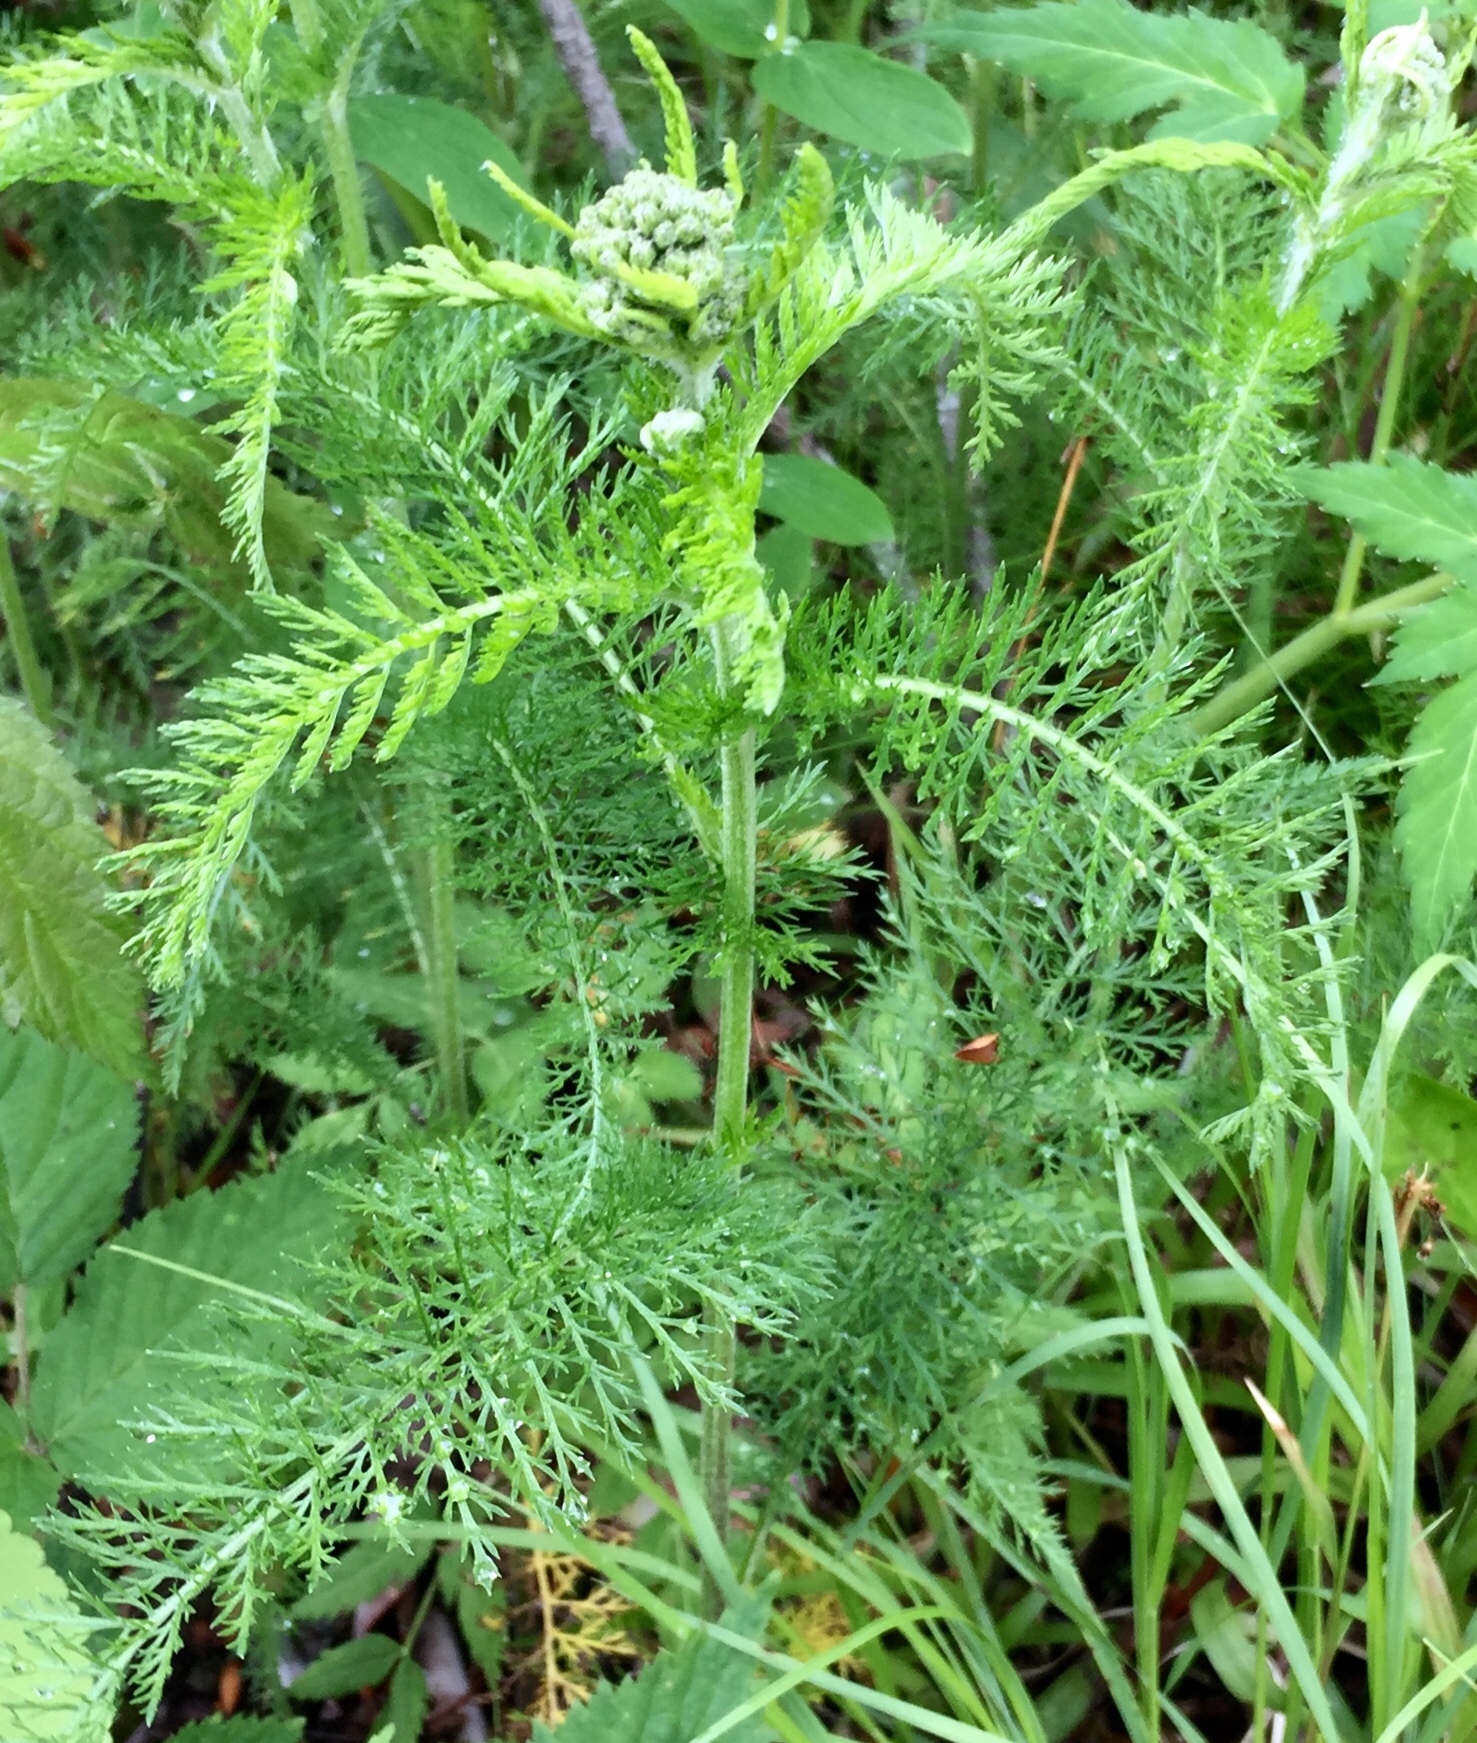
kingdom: Plantae
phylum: Tracheophyta
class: Magnoliopsida
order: Asterales
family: Asteraceae
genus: Achillea
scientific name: Achillea millefolium
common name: Yarrow
